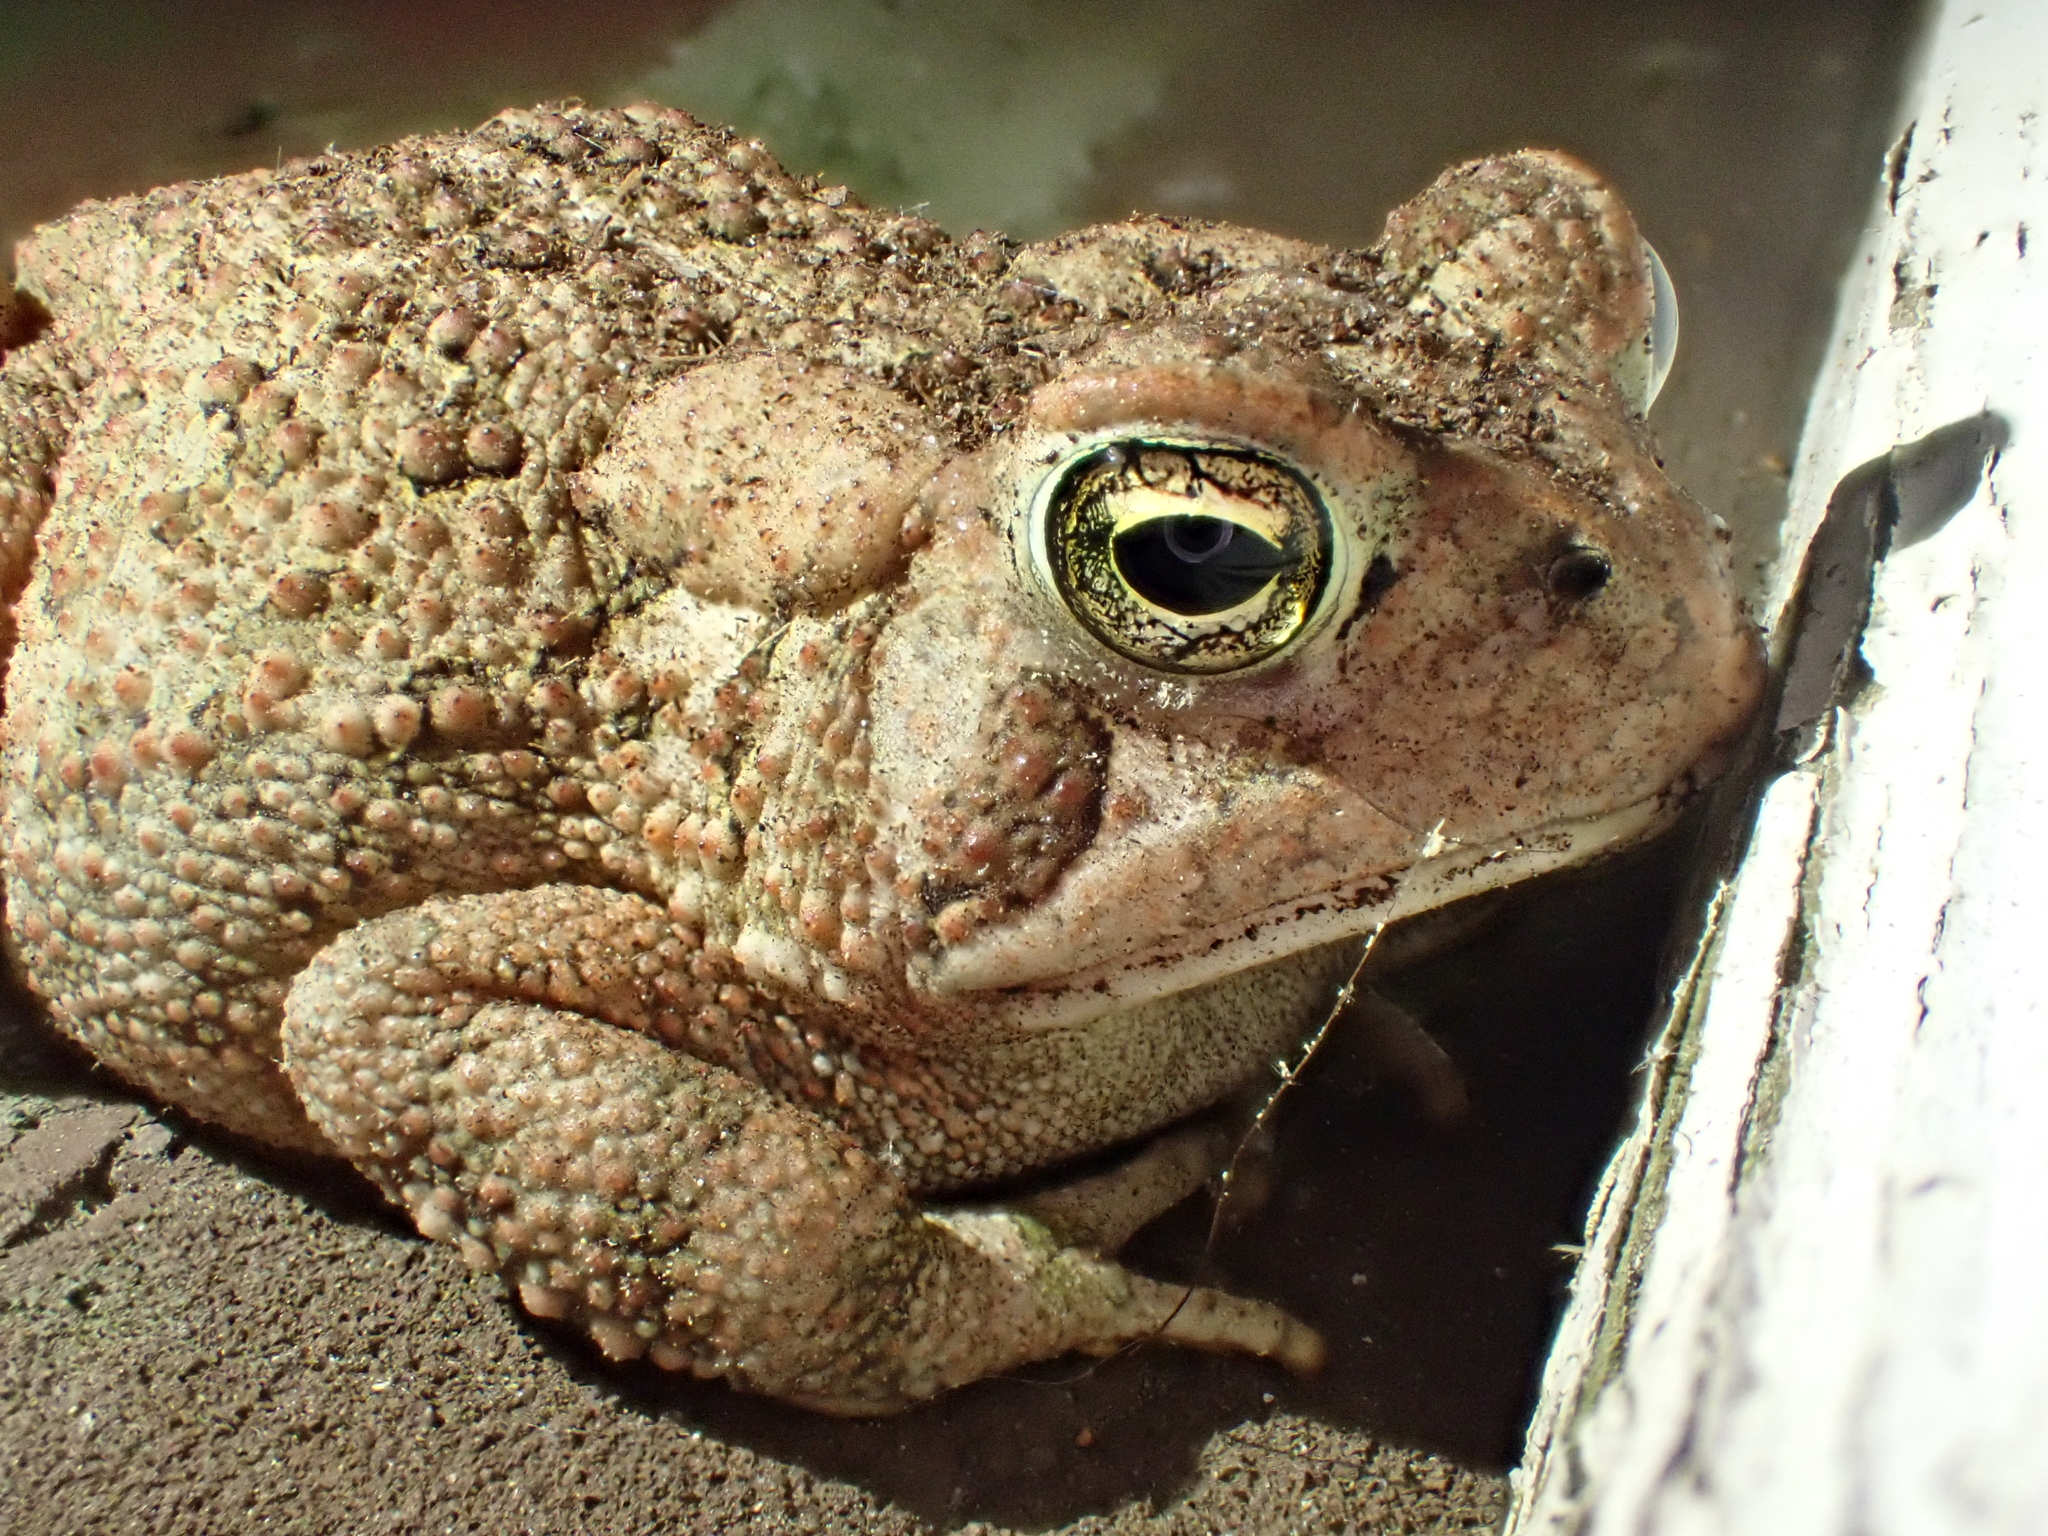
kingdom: Animalia
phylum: Chordata
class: Amphibia
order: Anura
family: Bufonidae
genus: Anaxyrus
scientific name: Anaxyrus fowleri
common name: Fowler's toad
